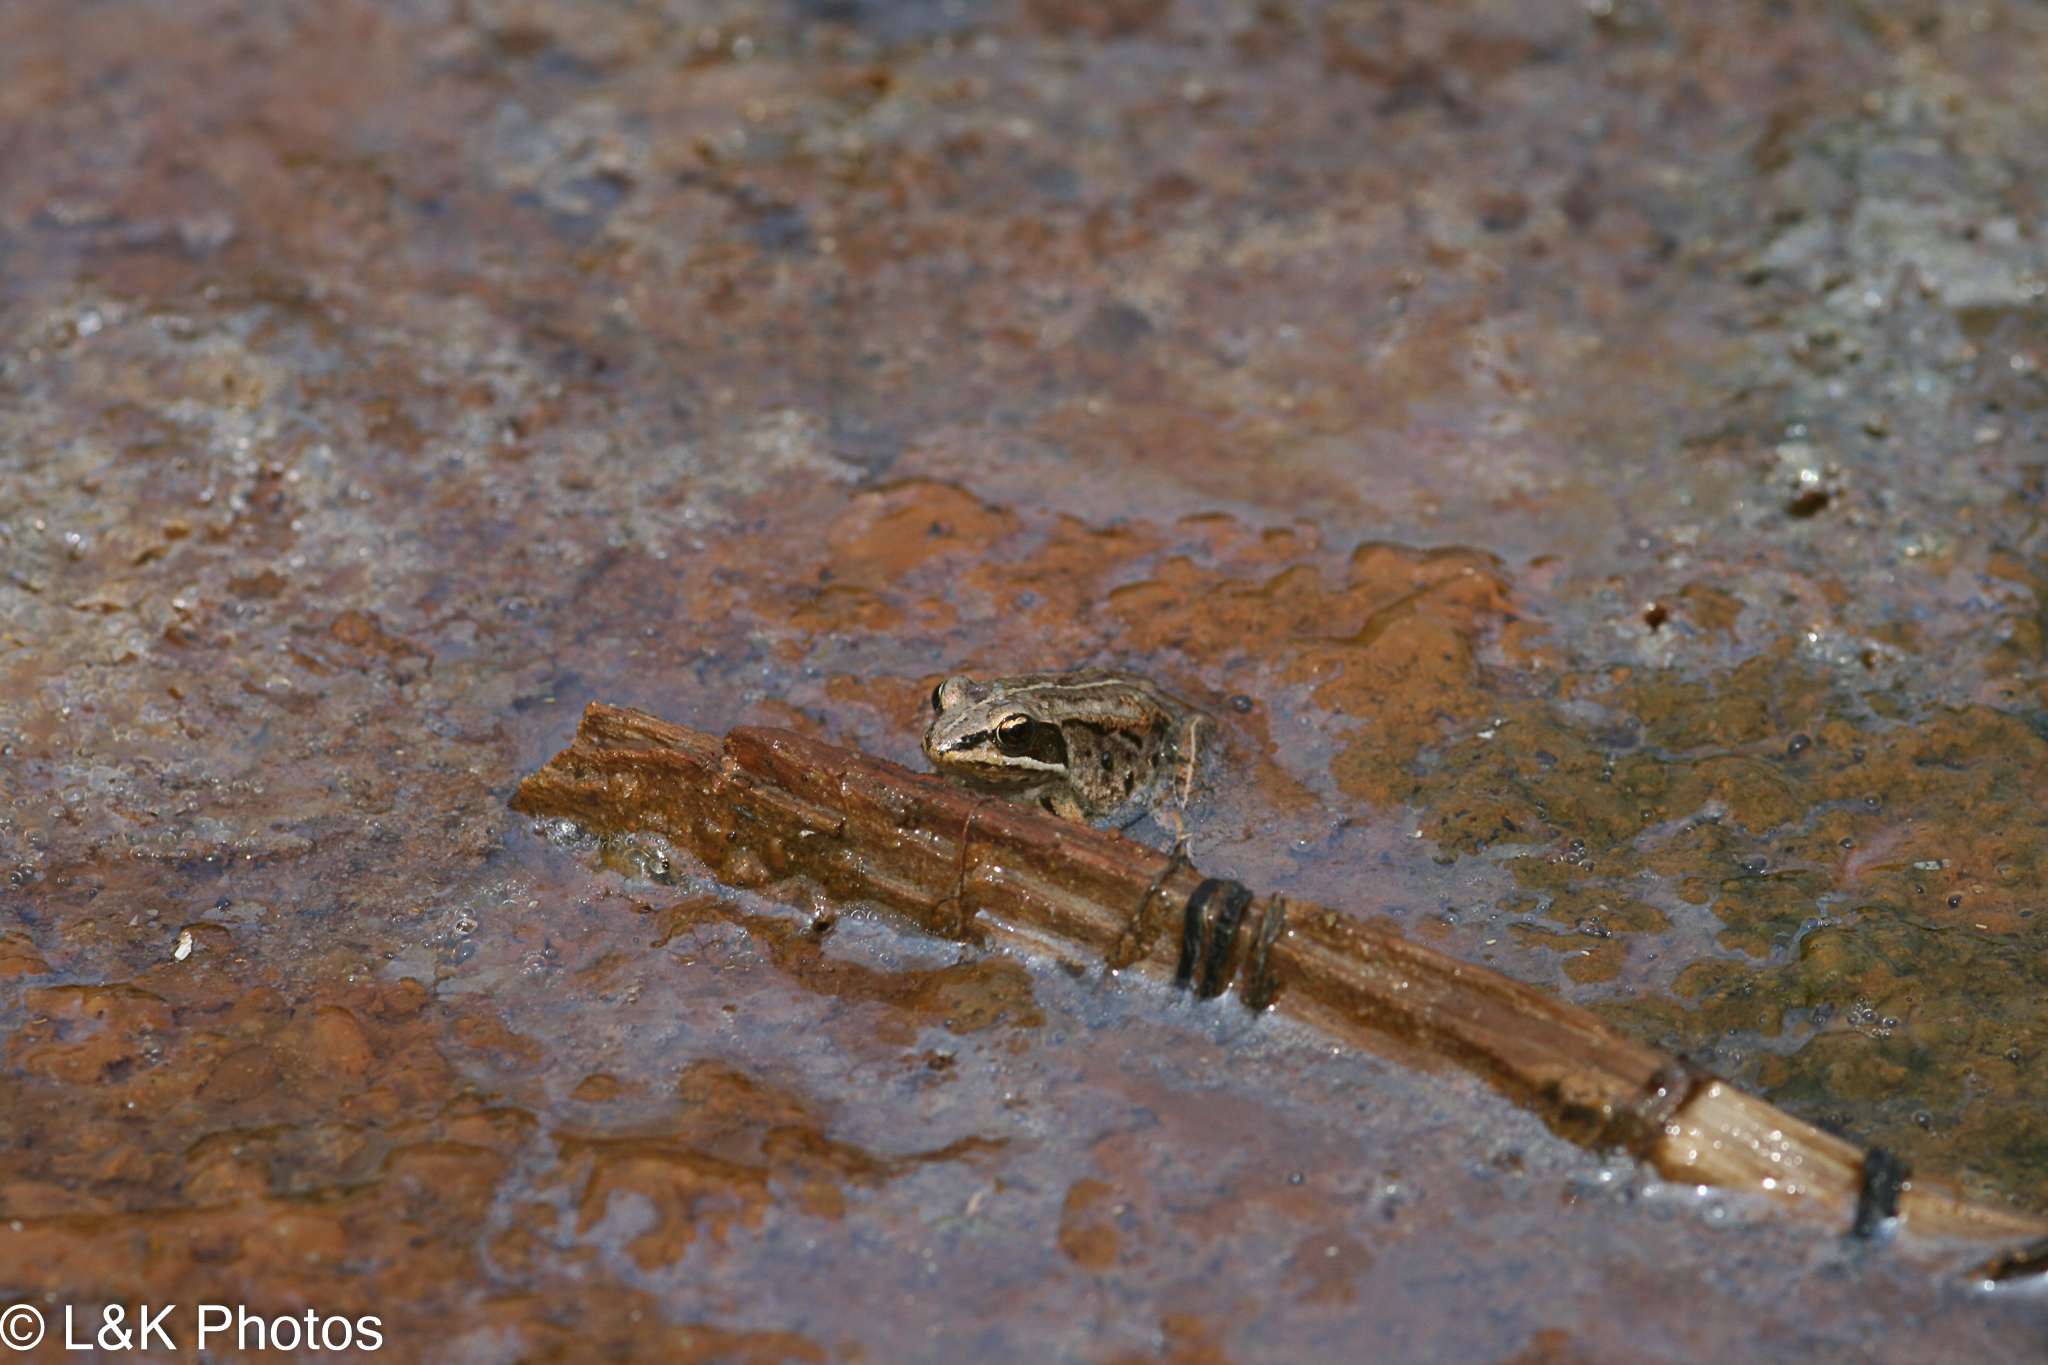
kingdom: Animalia
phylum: Chordata
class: Amphibia
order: Anura
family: Ranidae
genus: Lithobates
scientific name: Lithobates sylvaticus
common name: Wood frog
